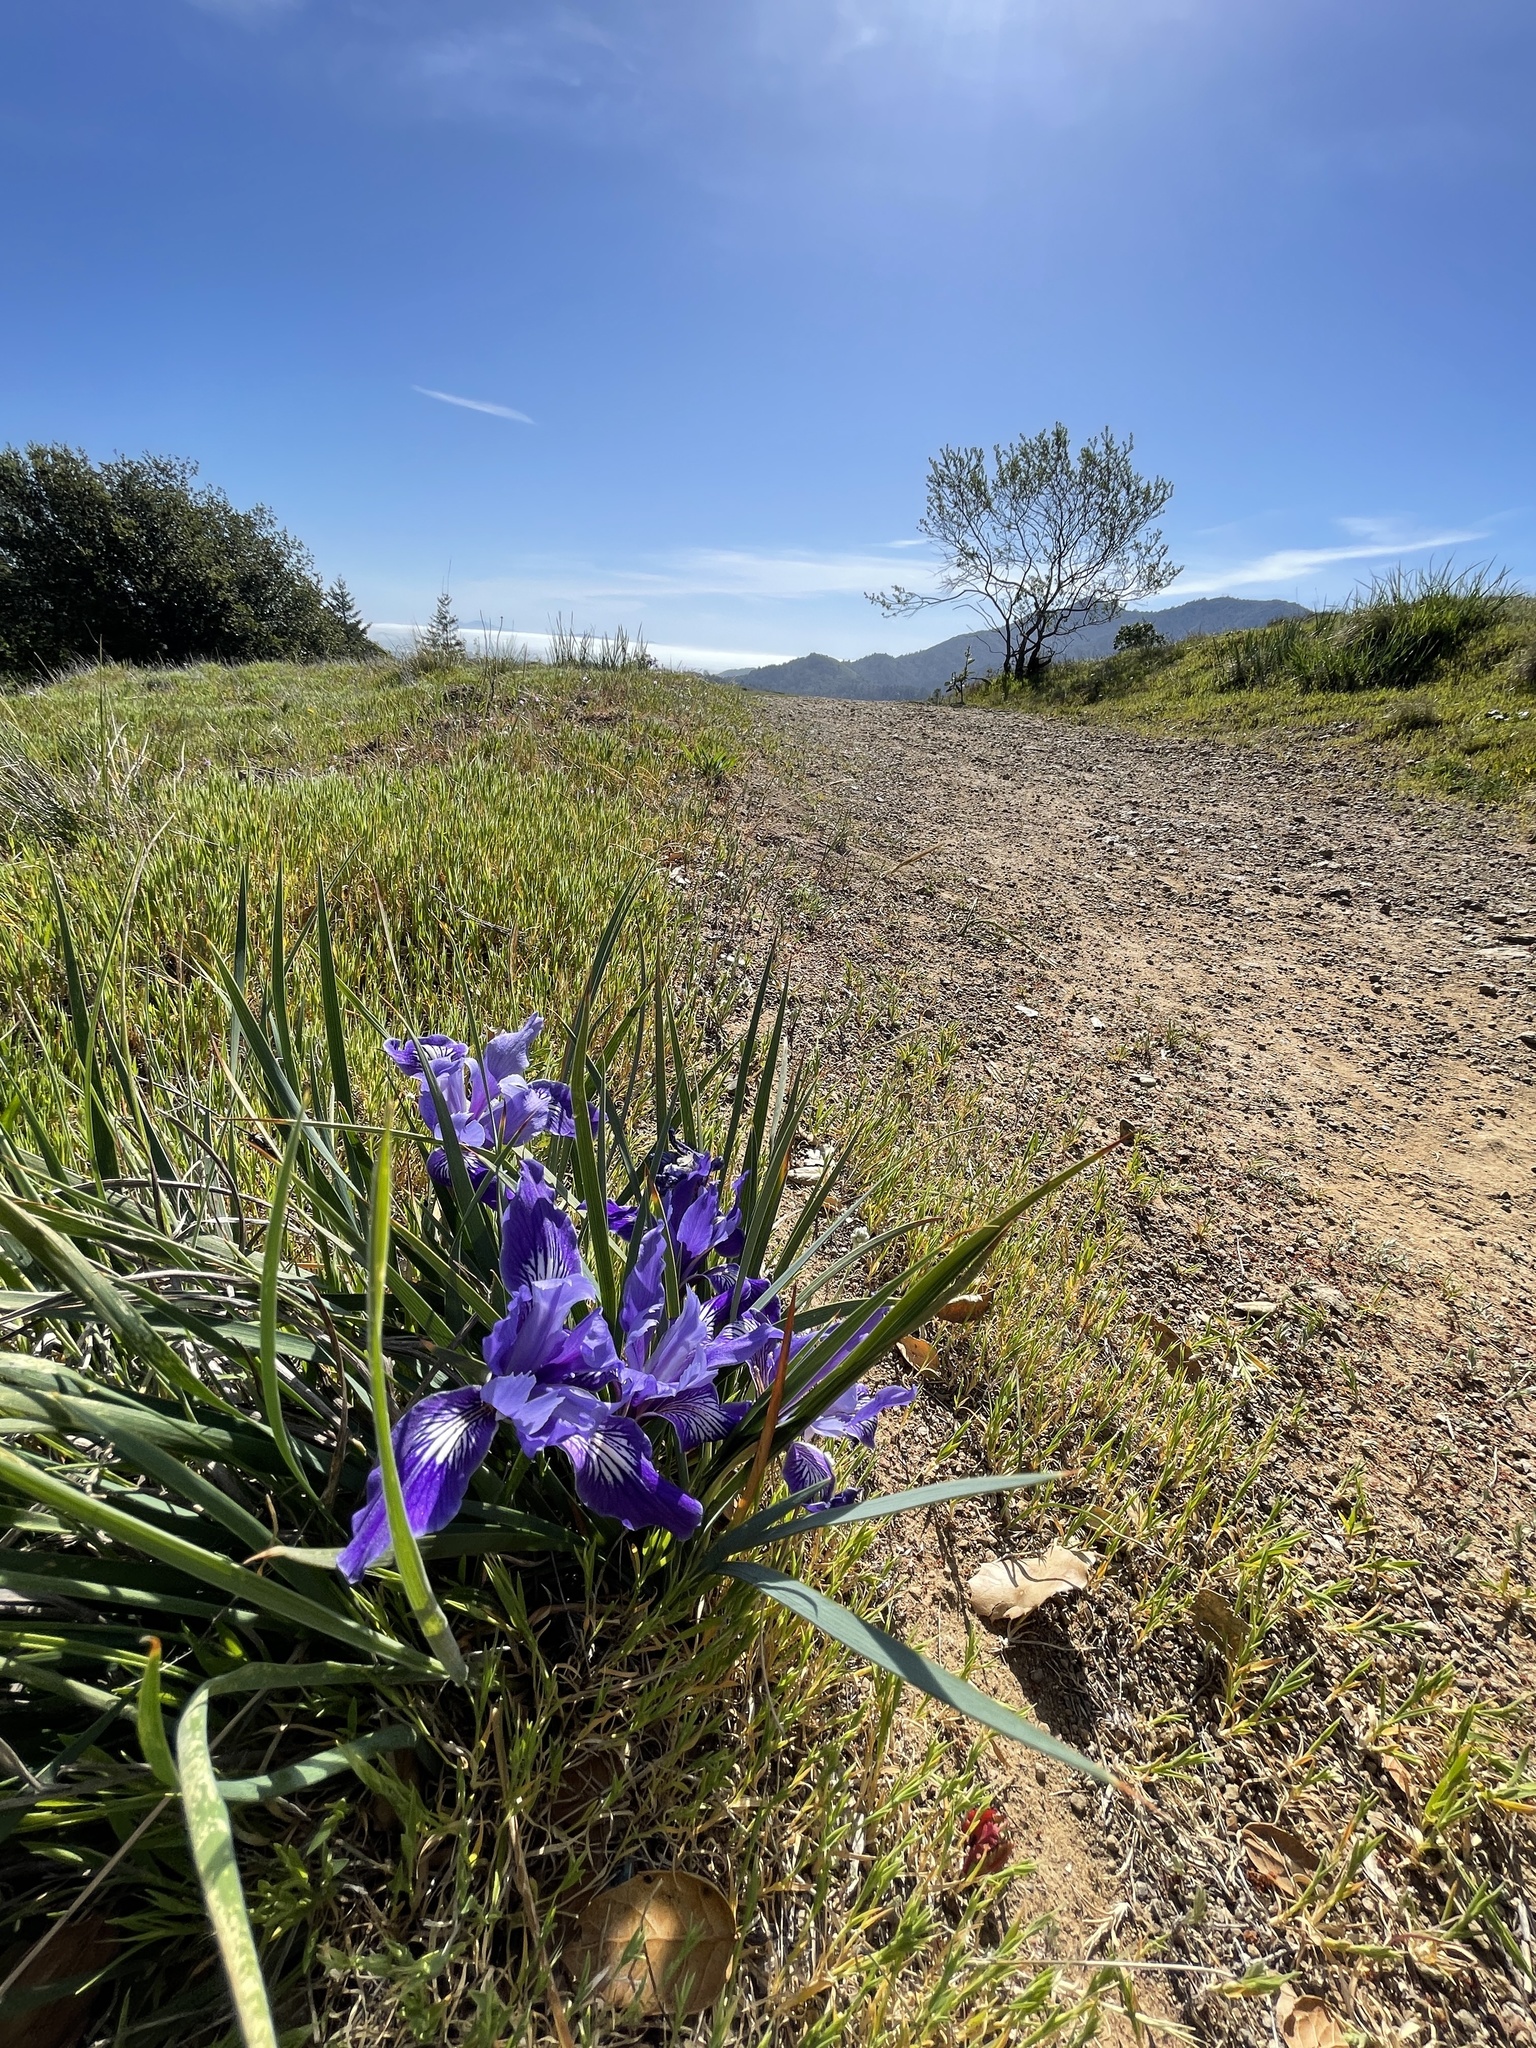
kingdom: Plantae
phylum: Tracheophyta
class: Liliopsida
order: Asparagales
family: Iridaceae
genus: Iris
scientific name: Iris macrosiphon
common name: Ground iris
